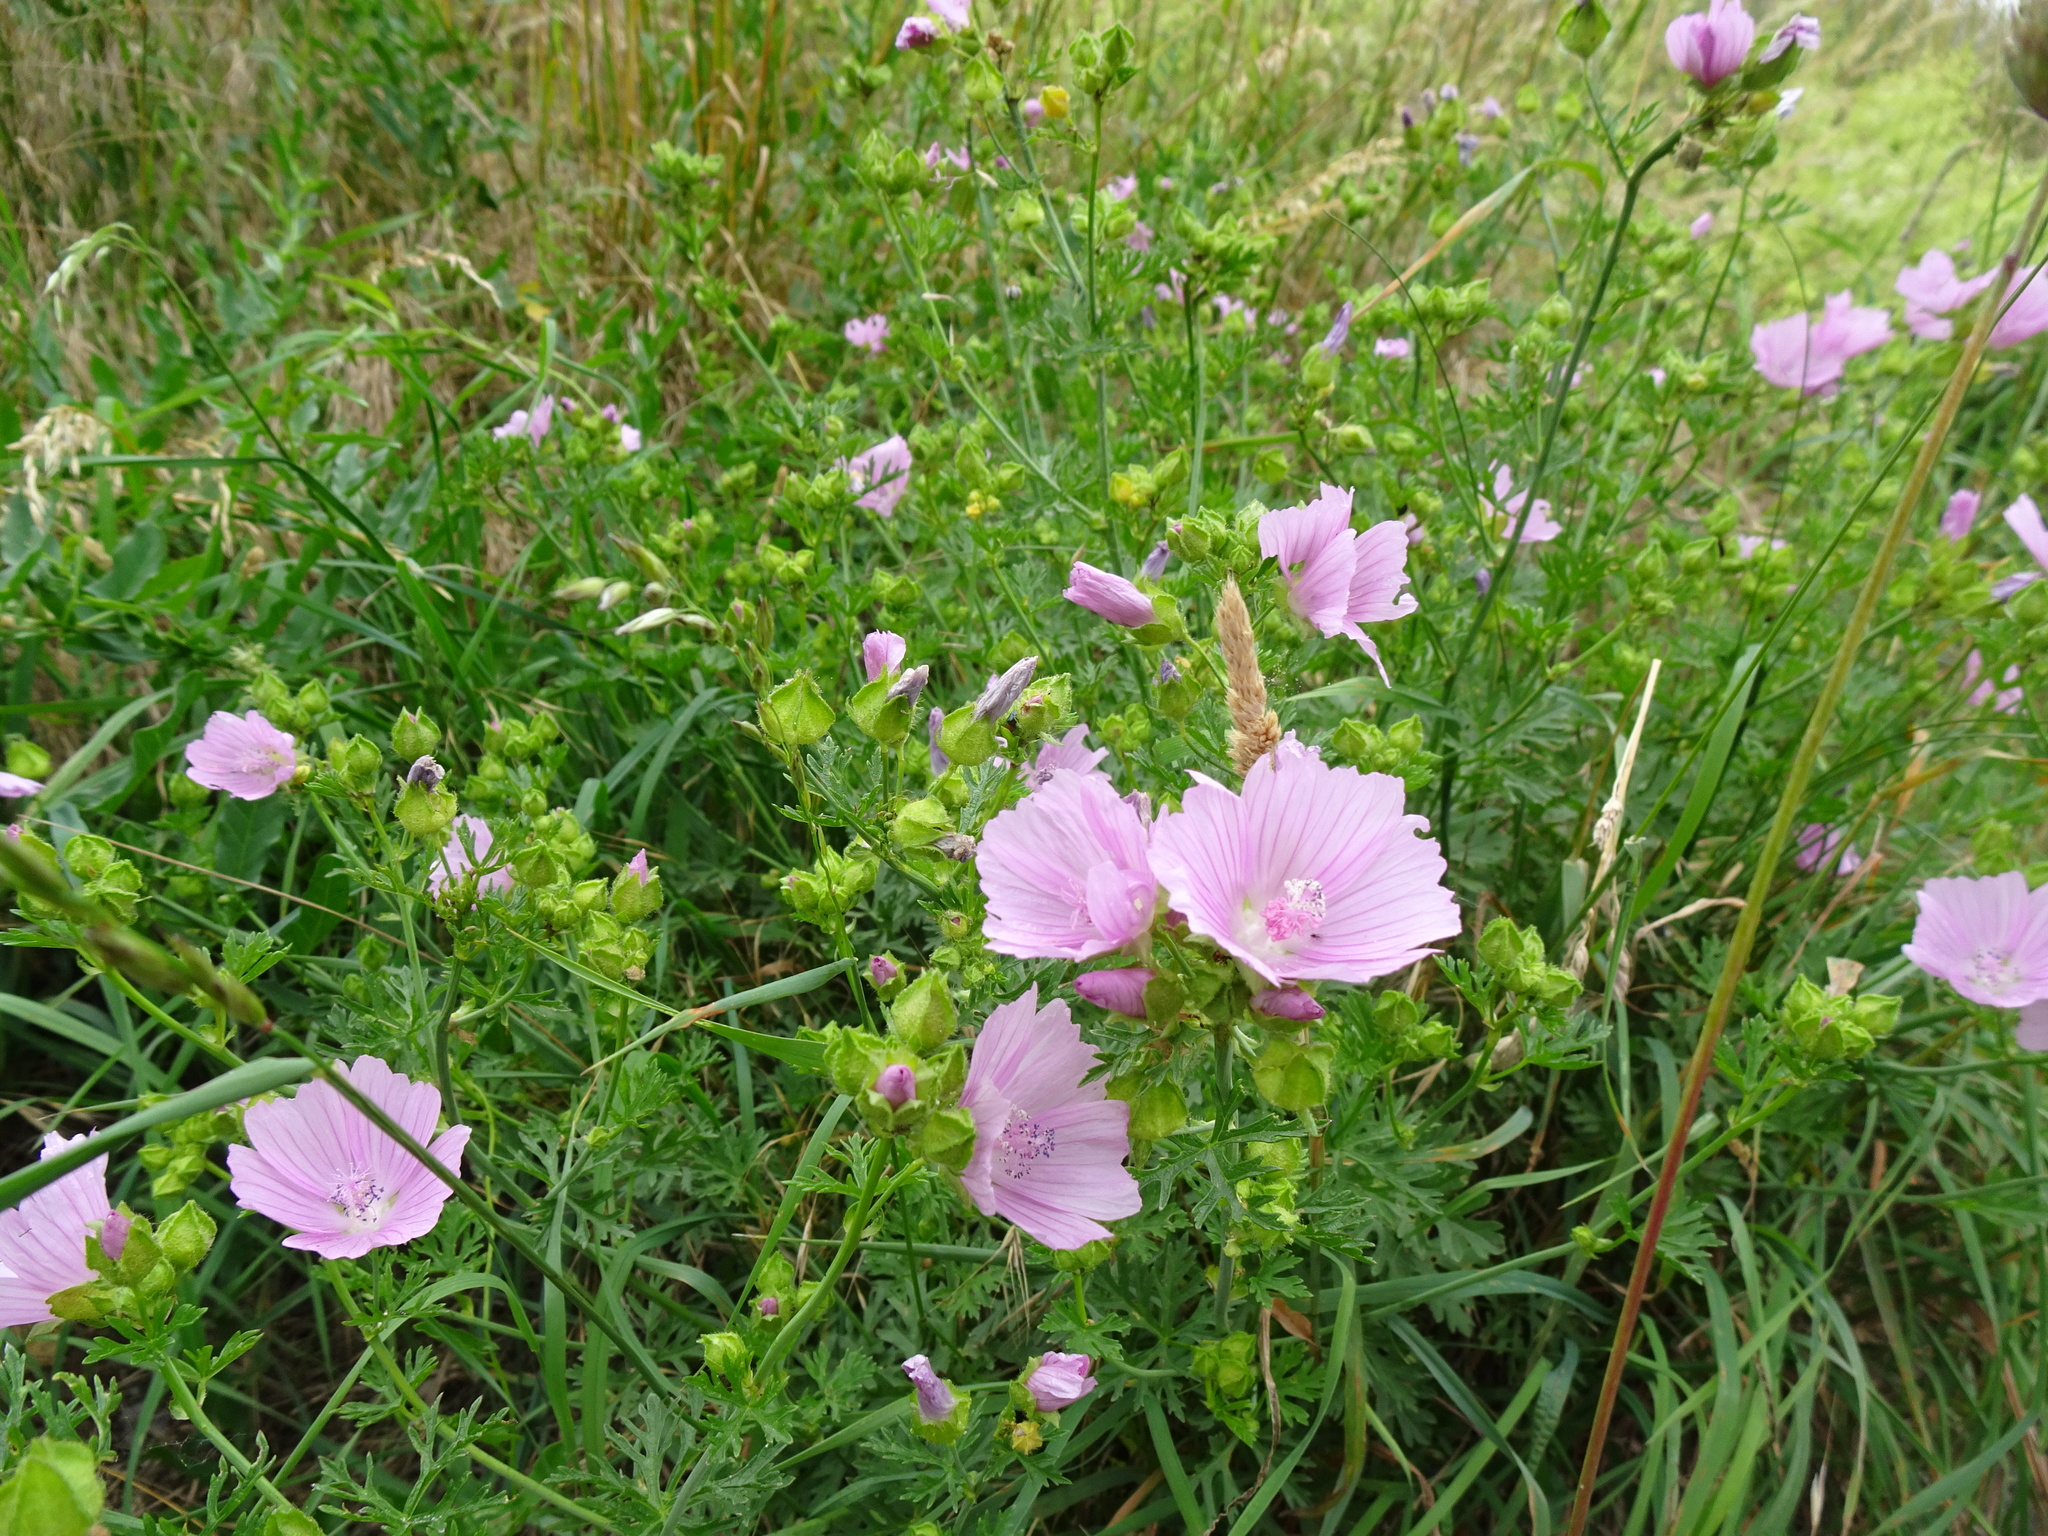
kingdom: Plantae
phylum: Tracheophyta
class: Magnoliopsida
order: Malvales
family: Malvaceae
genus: Malva
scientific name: Malva moschata
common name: Musk mallow
